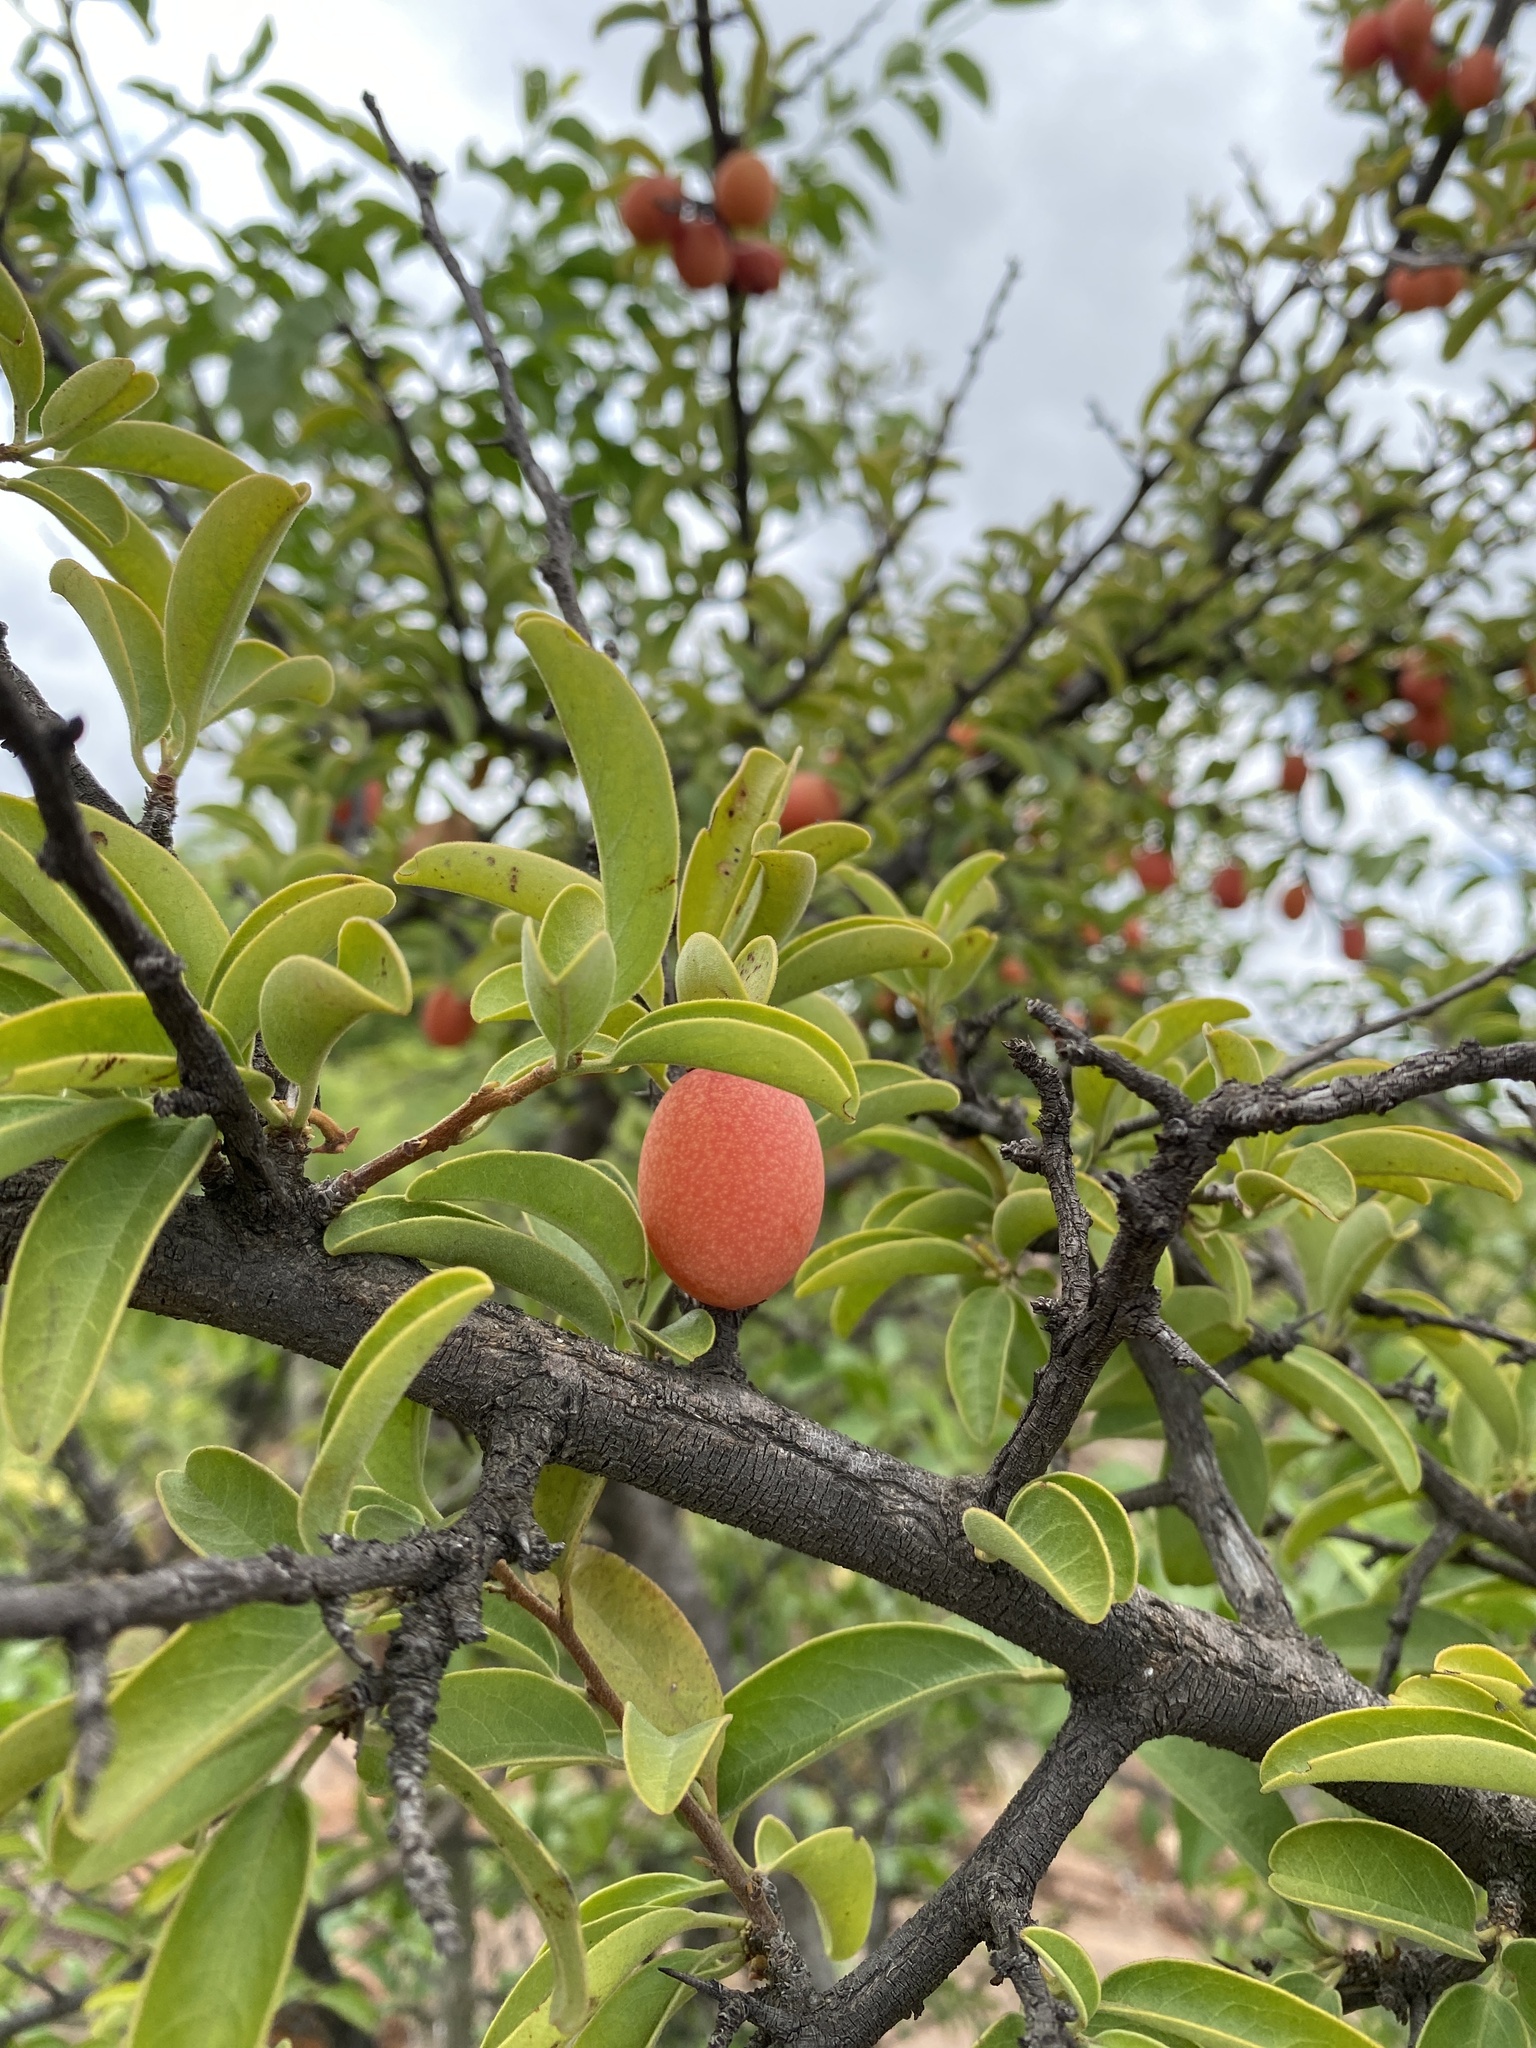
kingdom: Plantae
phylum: Tracheophyta
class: Magnoliopsida
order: Santalales
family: Ximeniaceae
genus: Ximenia
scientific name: Ximenia caffra
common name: Large sourplum
